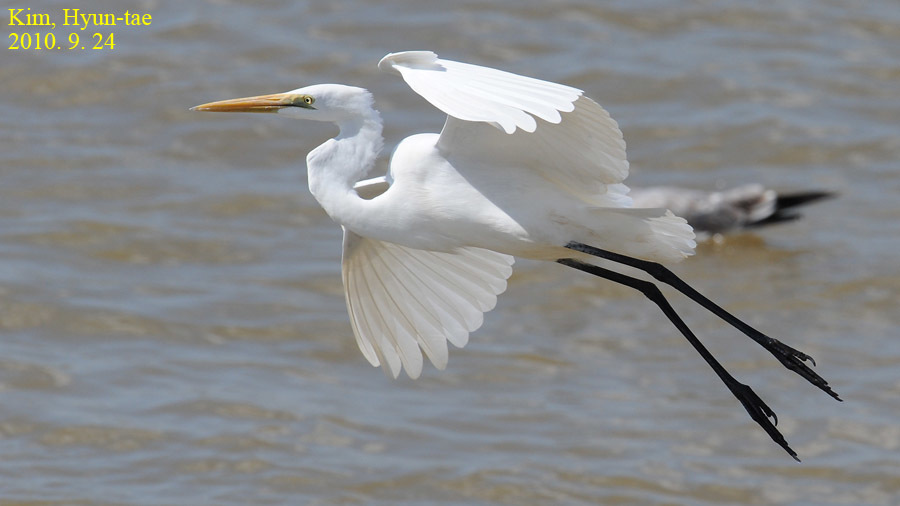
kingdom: Animalia
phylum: Chordata
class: Aves
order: Pelecaniformes
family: Ardeidae
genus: Ardea
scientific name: Ardea alba
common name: Great egret
